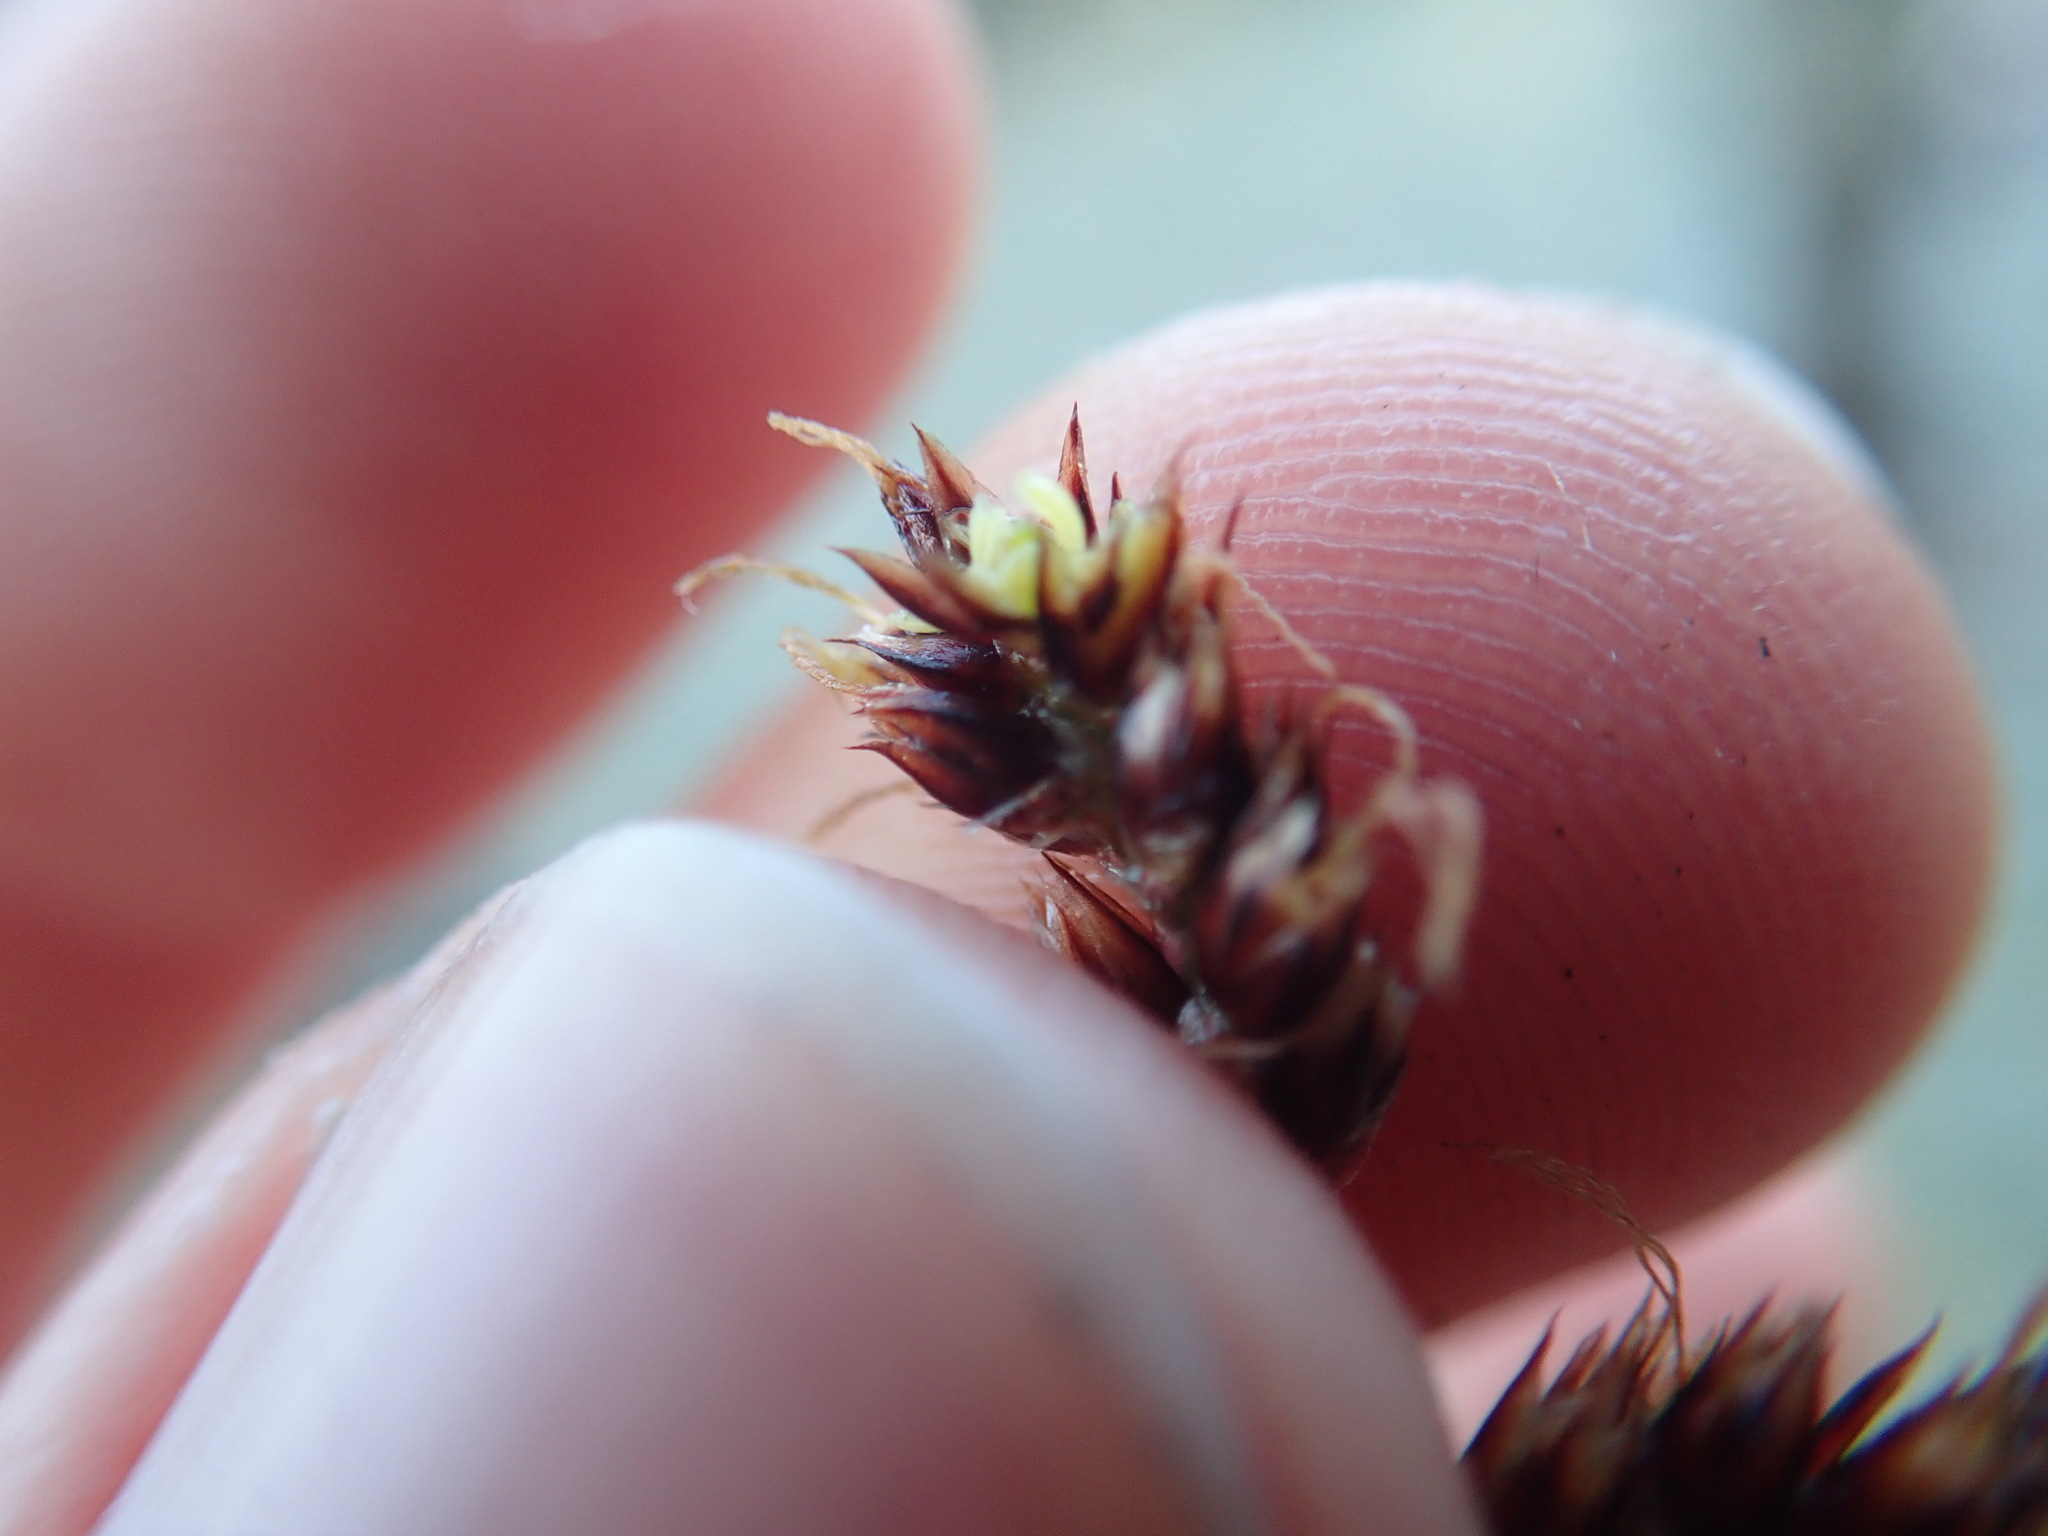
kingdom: Plantae
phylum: Tracheophyta
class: Liliopsida
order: Poales
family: Juncaceae
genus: Luzula
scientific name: Luzula campestris
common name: Field wood-rush
